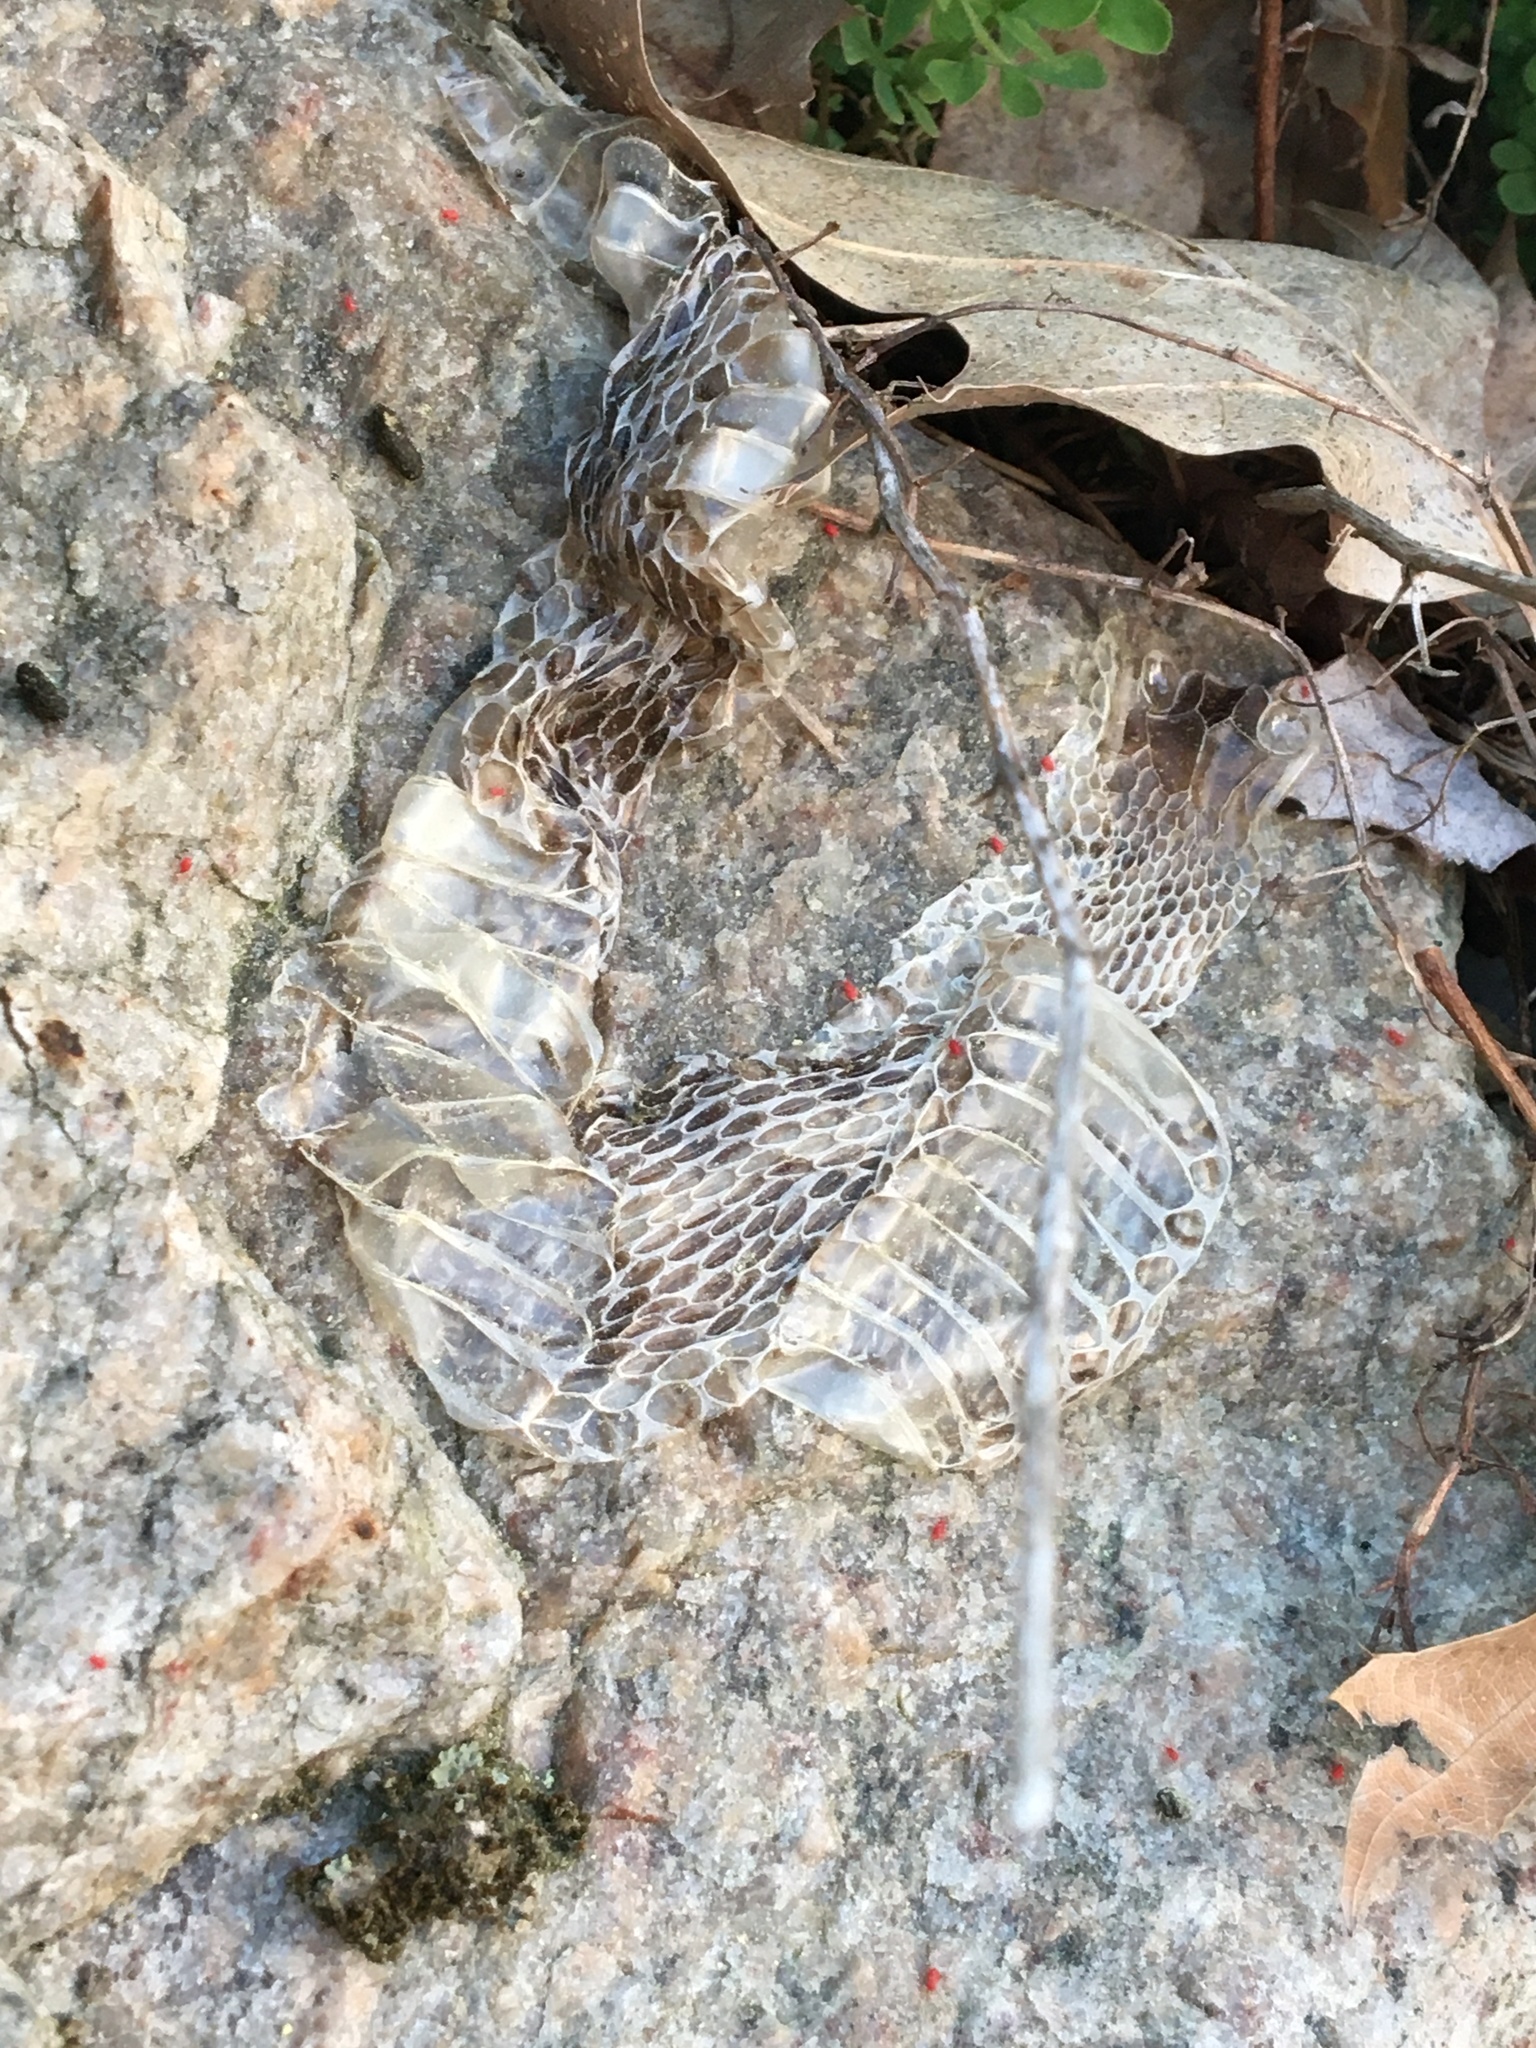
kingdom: Animalia
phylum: Chordata
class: Squamata
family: Colubridae
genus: Thamnophis
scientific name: Thamnophis sirtalis
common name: Common garter snake
